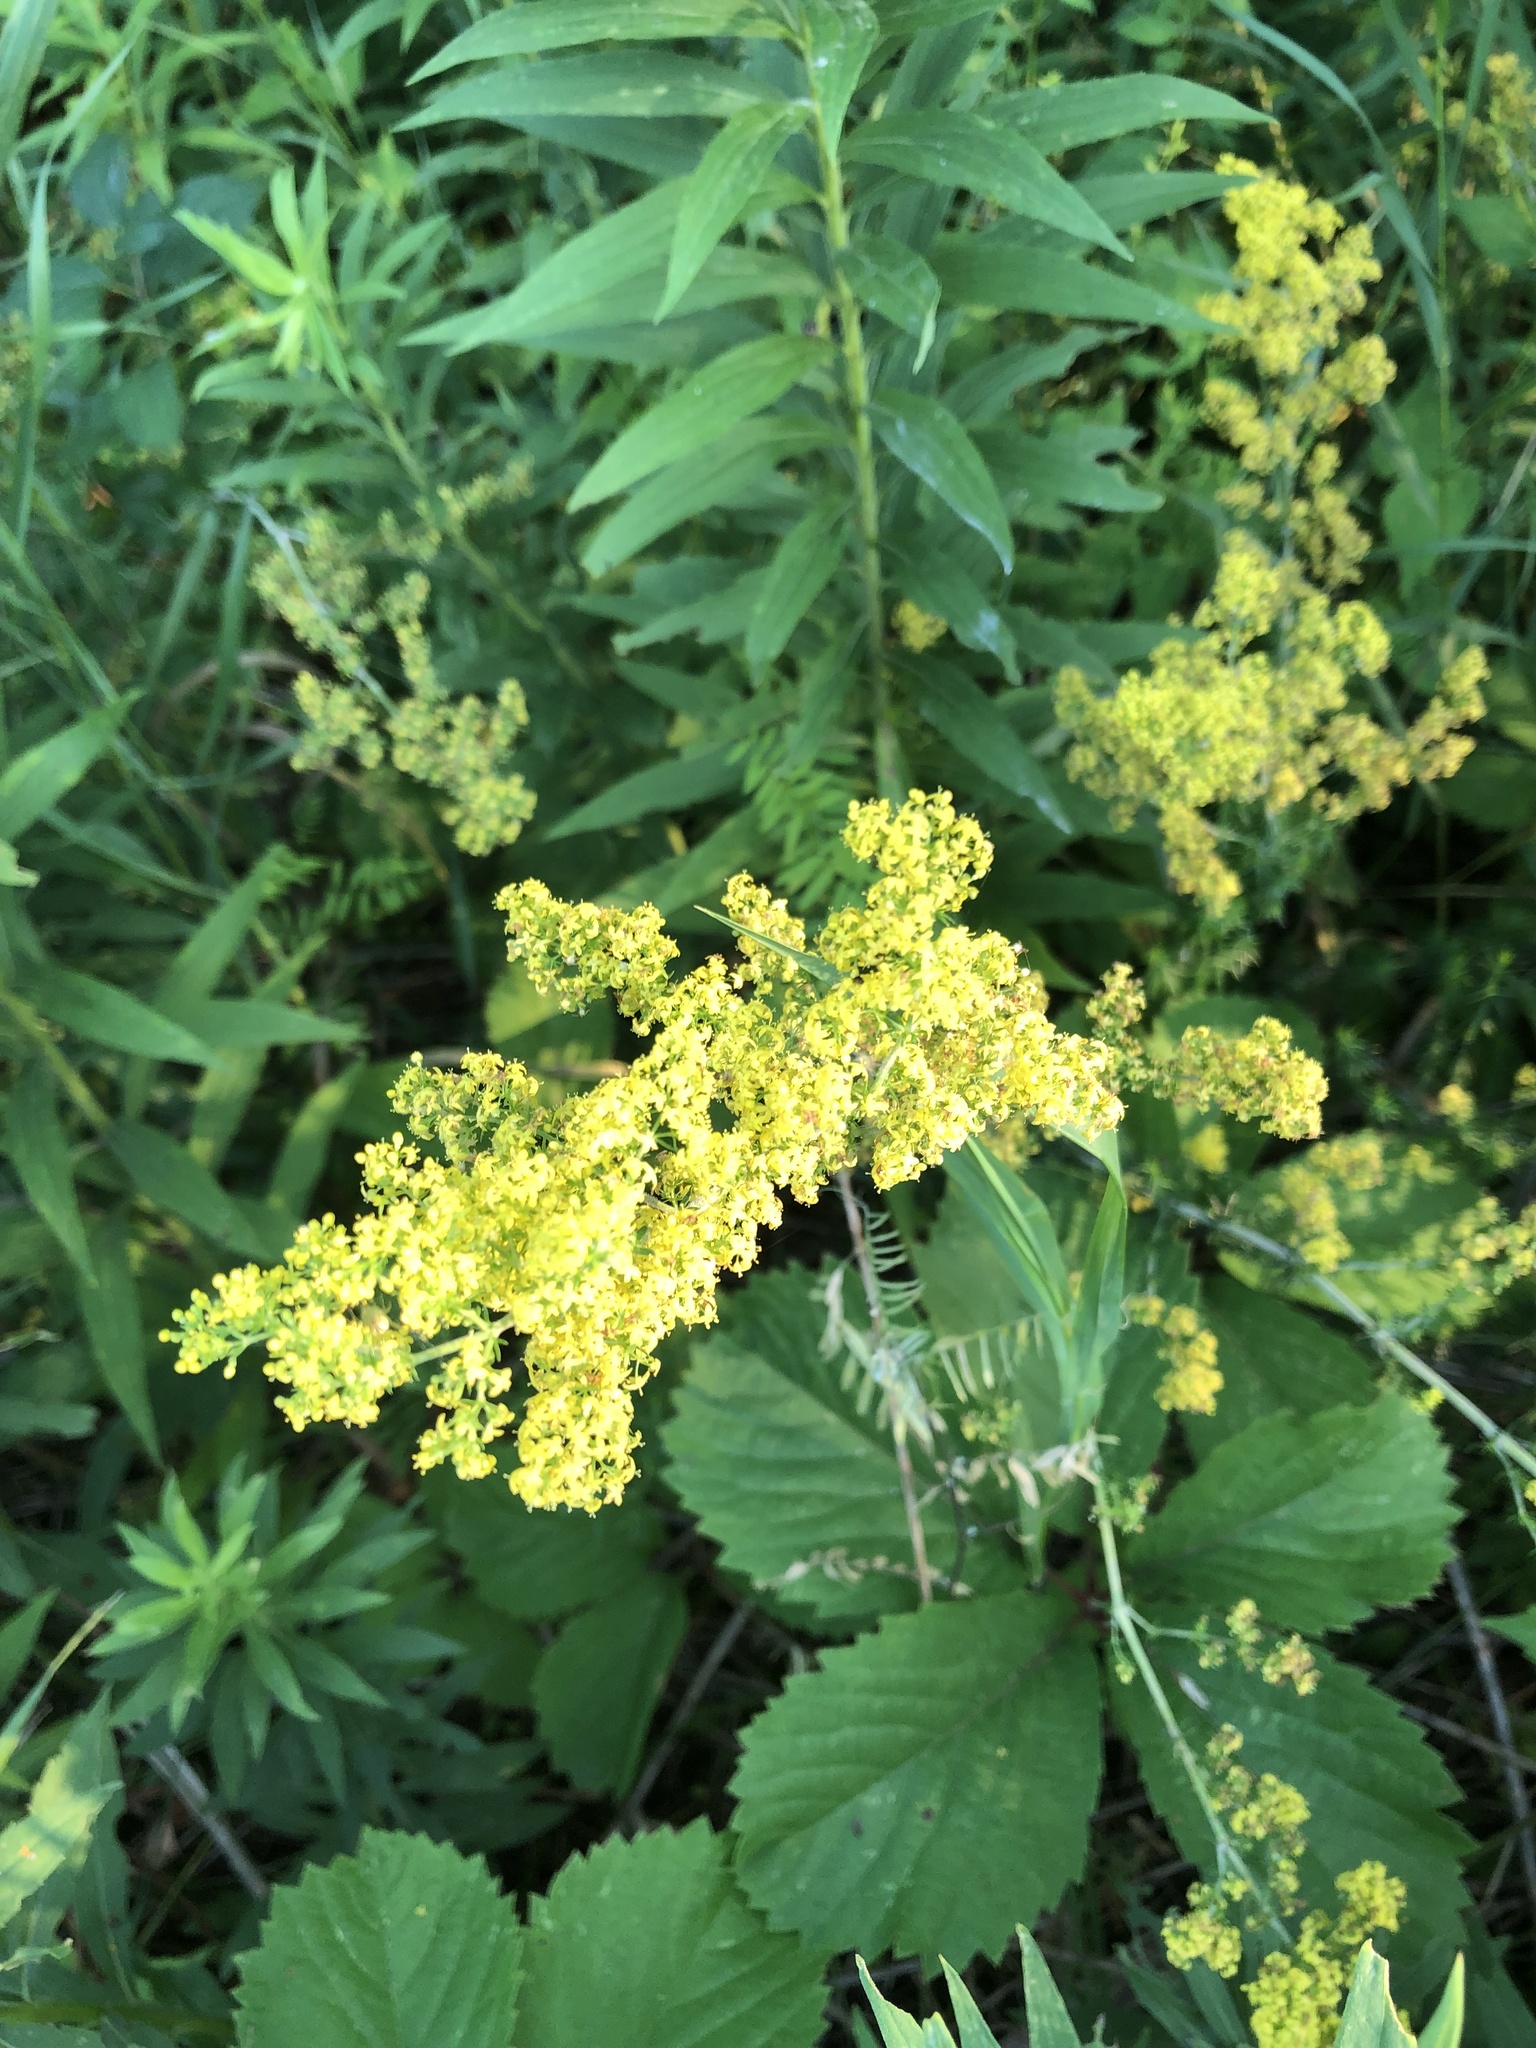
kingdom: Plantae
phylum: Tracheophyta
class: Magnoliopsida
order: Gentianales
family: Rubiaceae
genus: Galium
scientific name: Galium verum
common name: Lady's bedstraw
